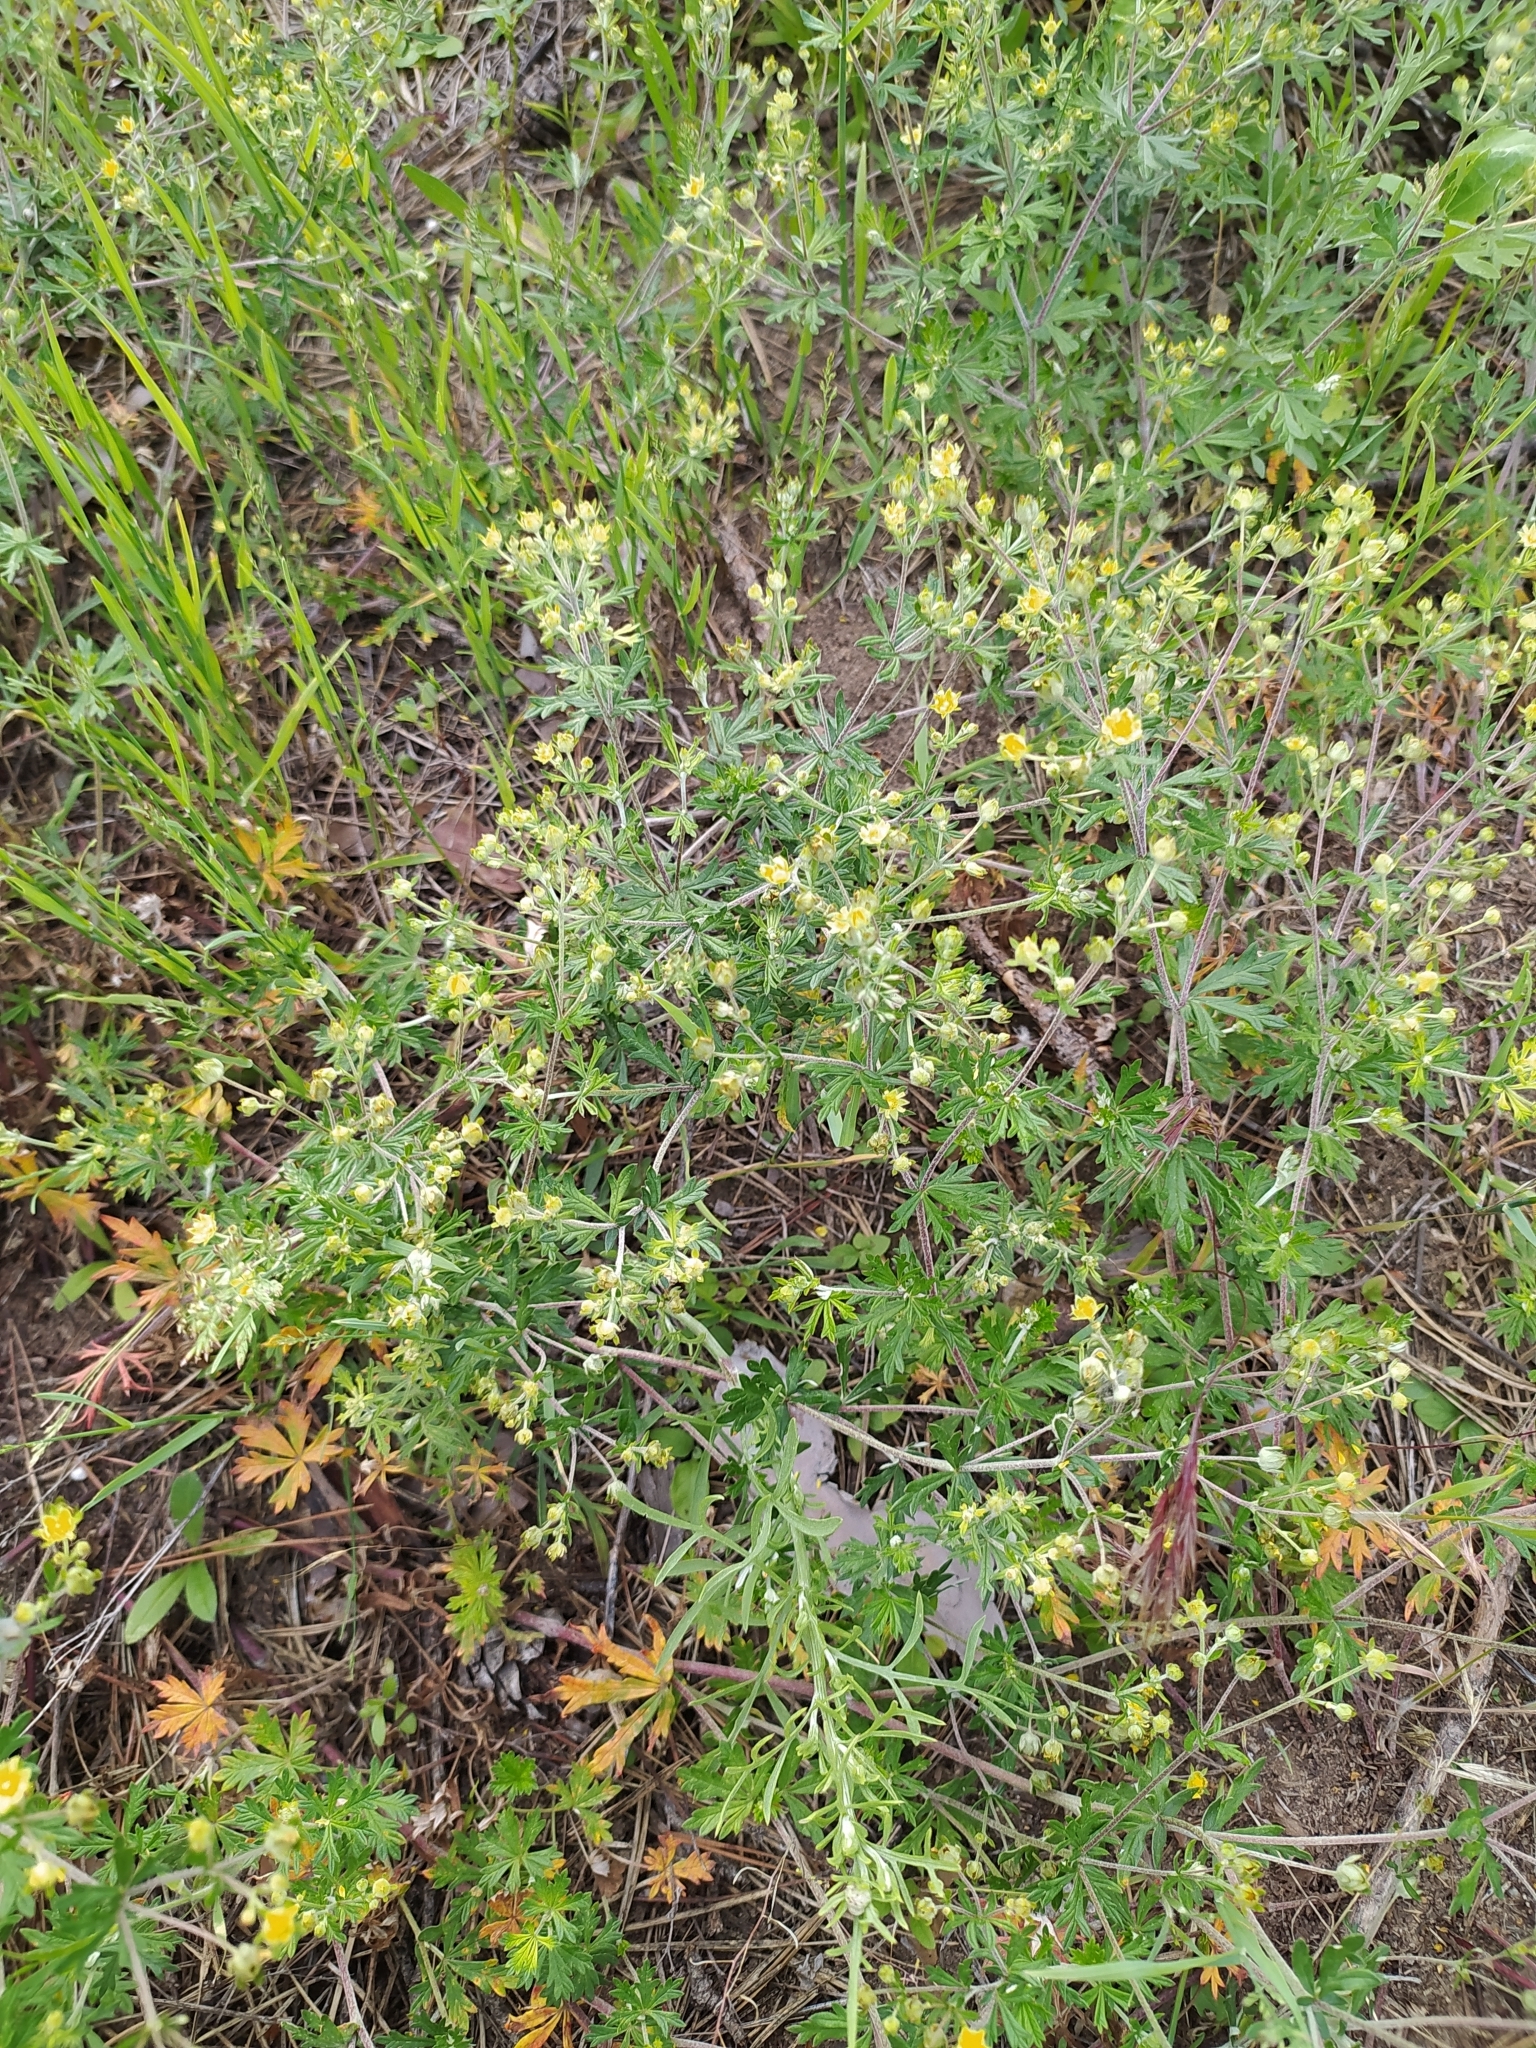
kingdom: Plantae
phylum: Tracheophyta
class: Magnoliopsida
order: Rosales
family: Rosaceae
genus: Potentilla
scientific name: Potentilla argentea
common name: Hoary cinquefoil
